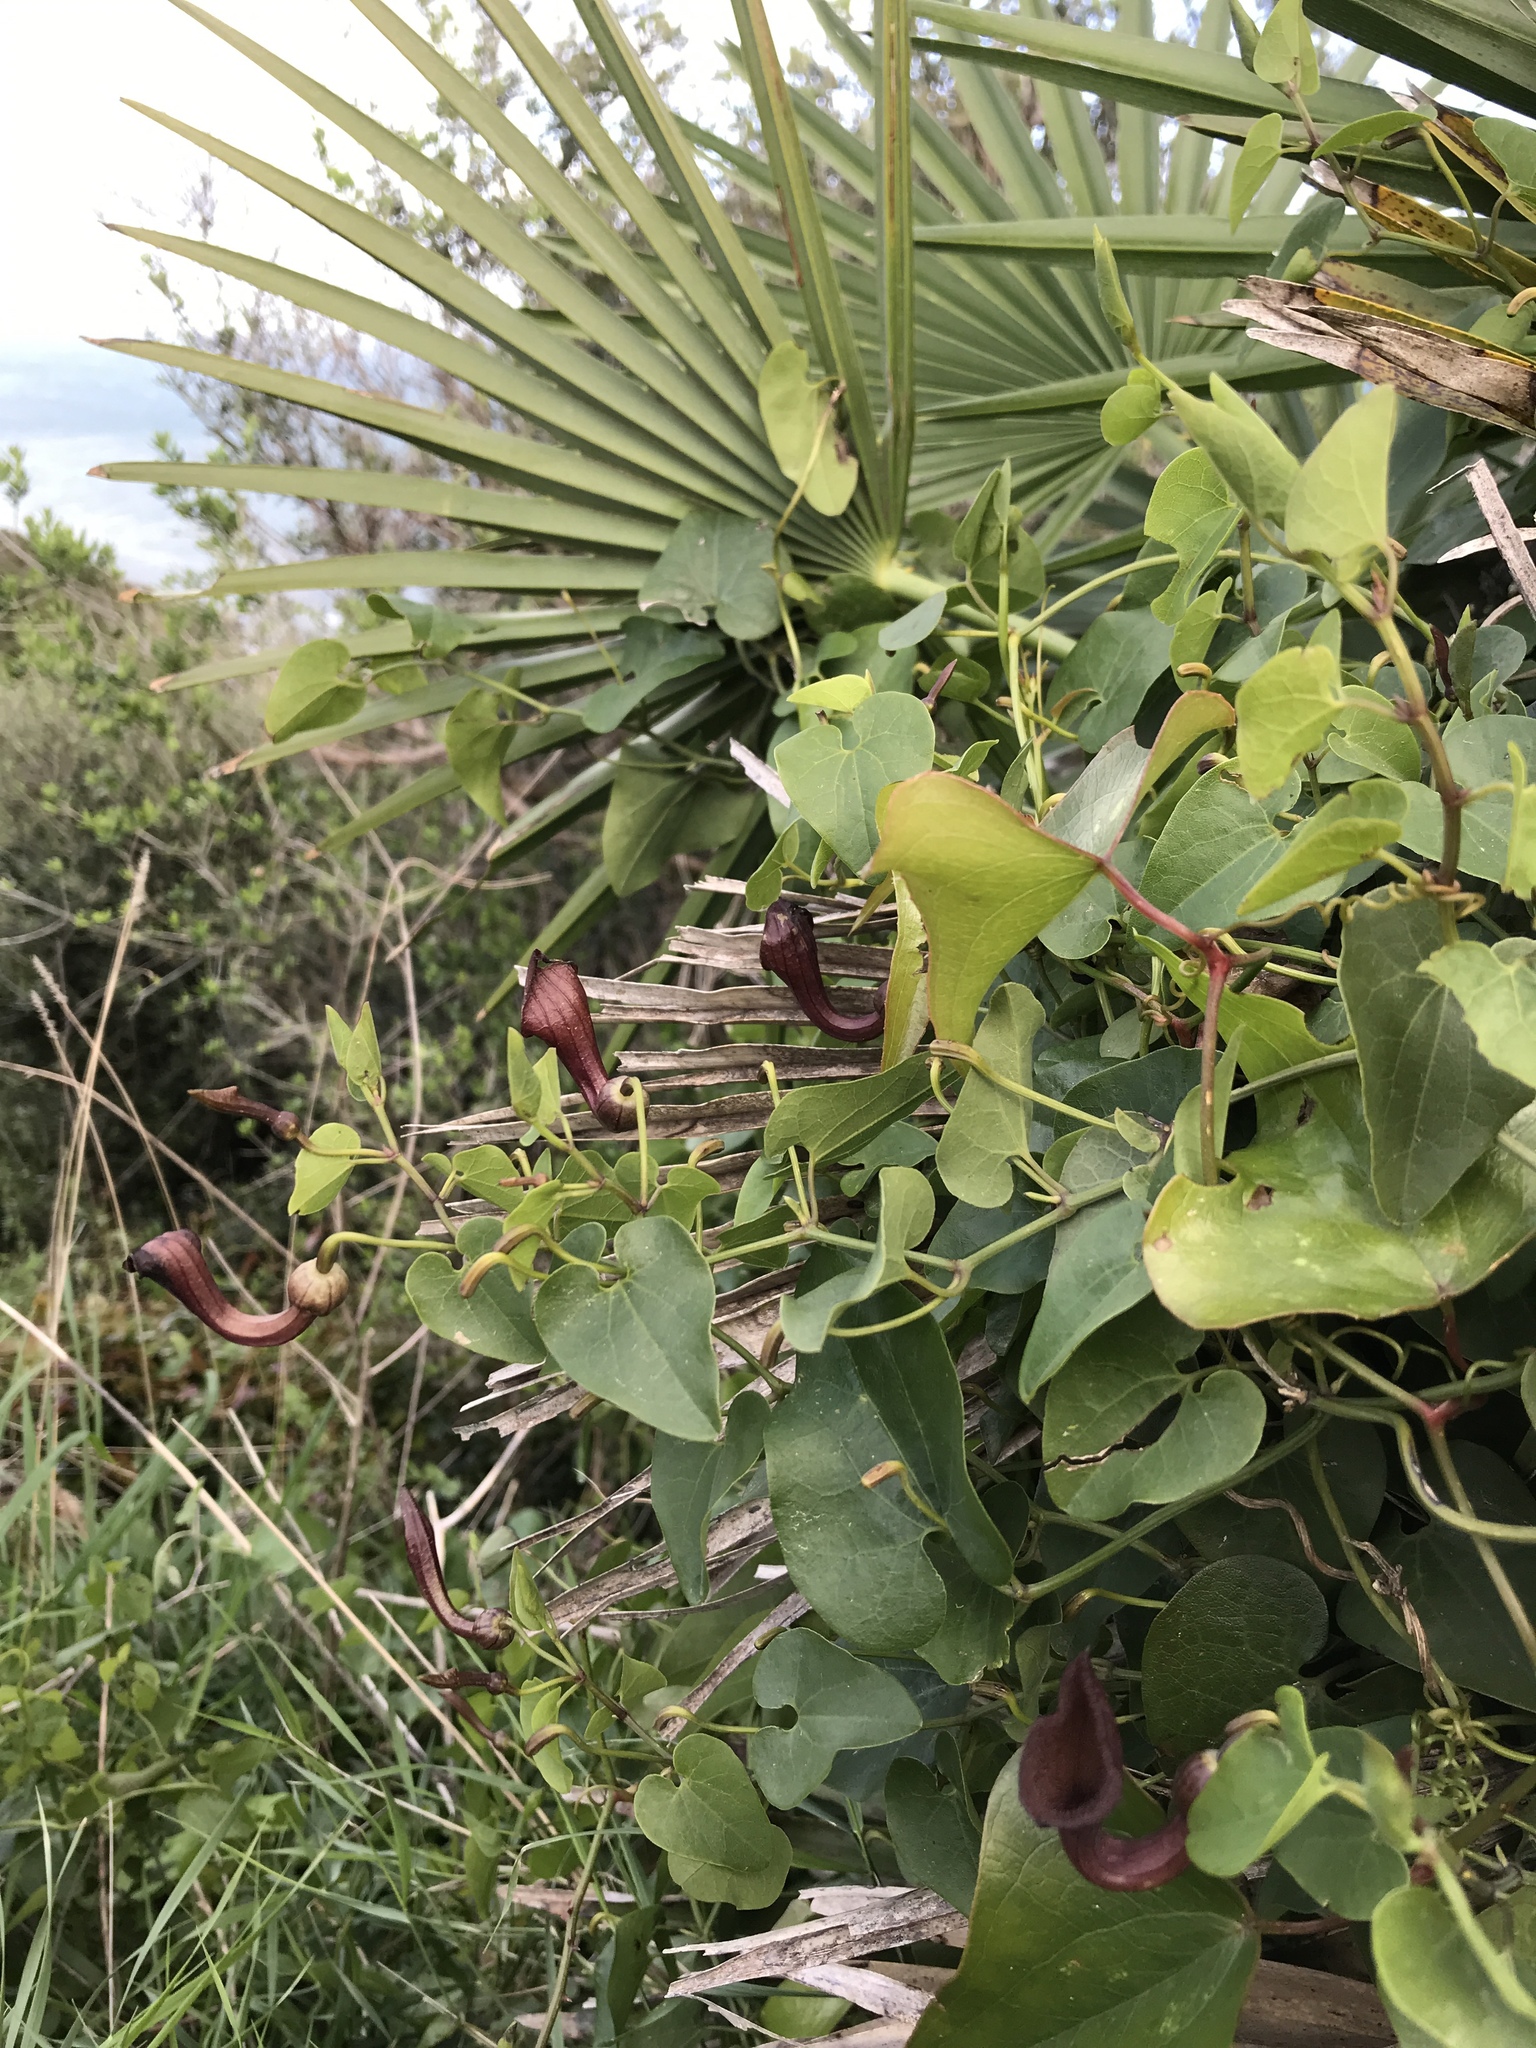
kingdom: Plantae
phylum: Tracheophyta
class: Magnoliopsida
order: Piperales
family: Aristolochiaceae
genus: Aristolochia
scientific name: Aristolochia baetica
